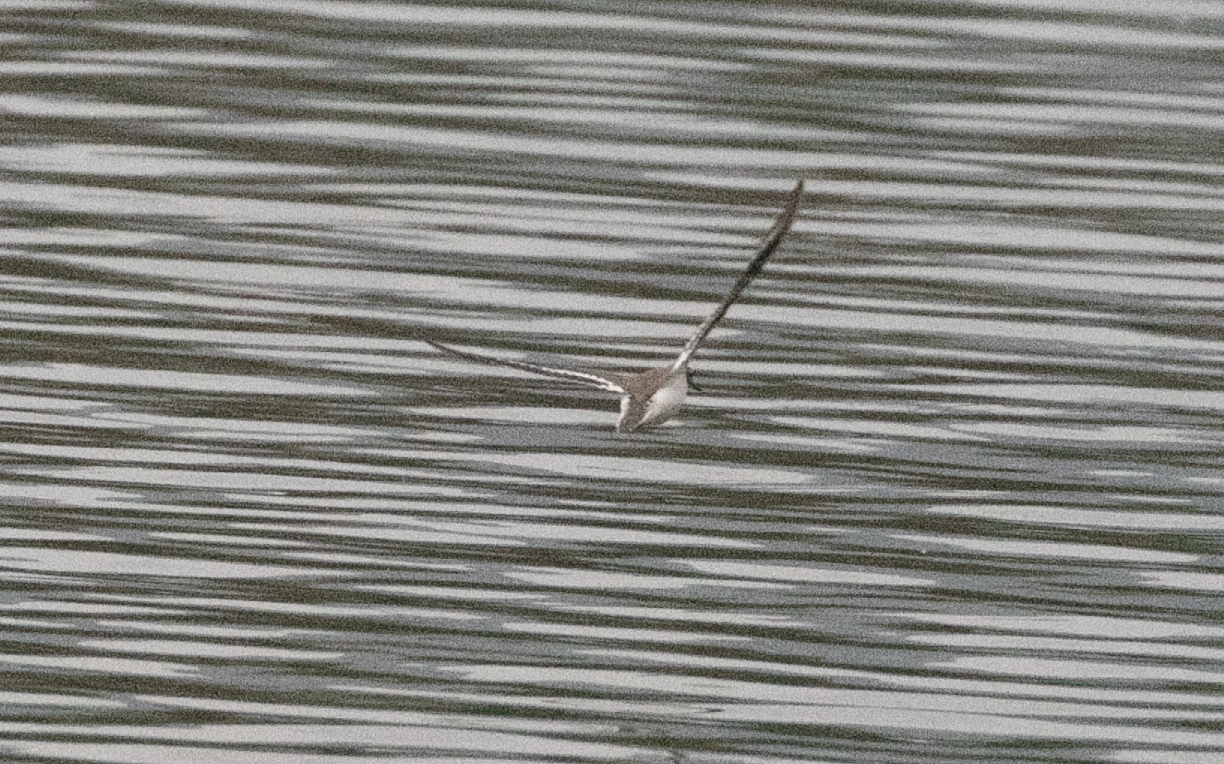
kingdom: Animalia
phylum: Chordata
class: Aves
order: Charadriiformes
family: Scolopacidae
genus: Actitis
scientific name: Actitis hypoleucos
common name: Common sandpiper
